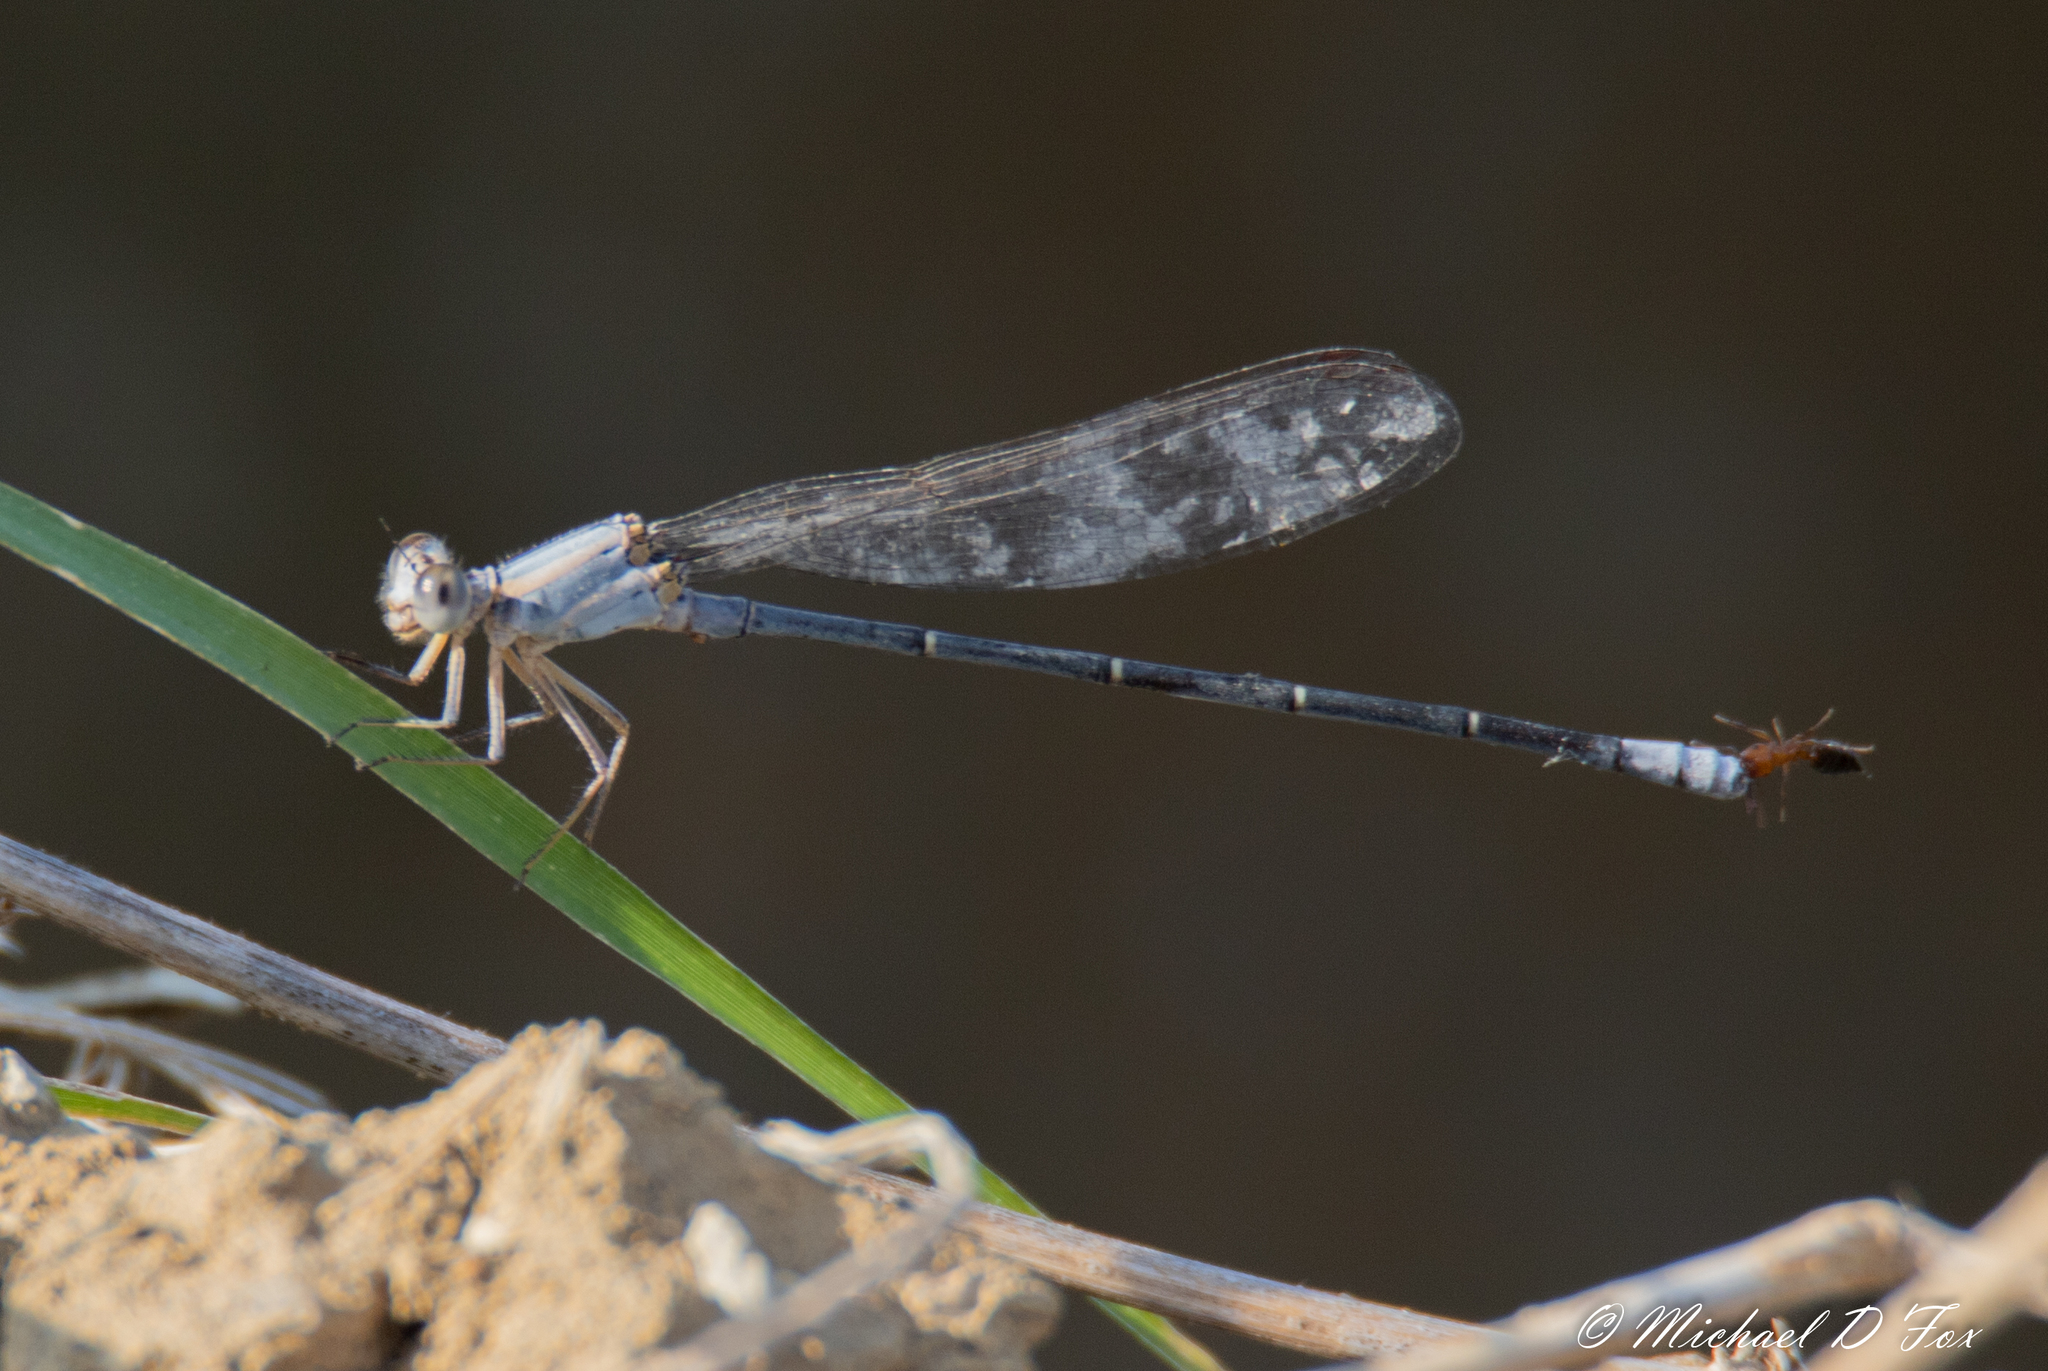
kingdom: Animalia
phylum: Arthropoda
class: Insecta
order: Odonata
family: Coenagrionidae
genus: Argia
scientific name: Argia moesta
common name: Powdered dancer
